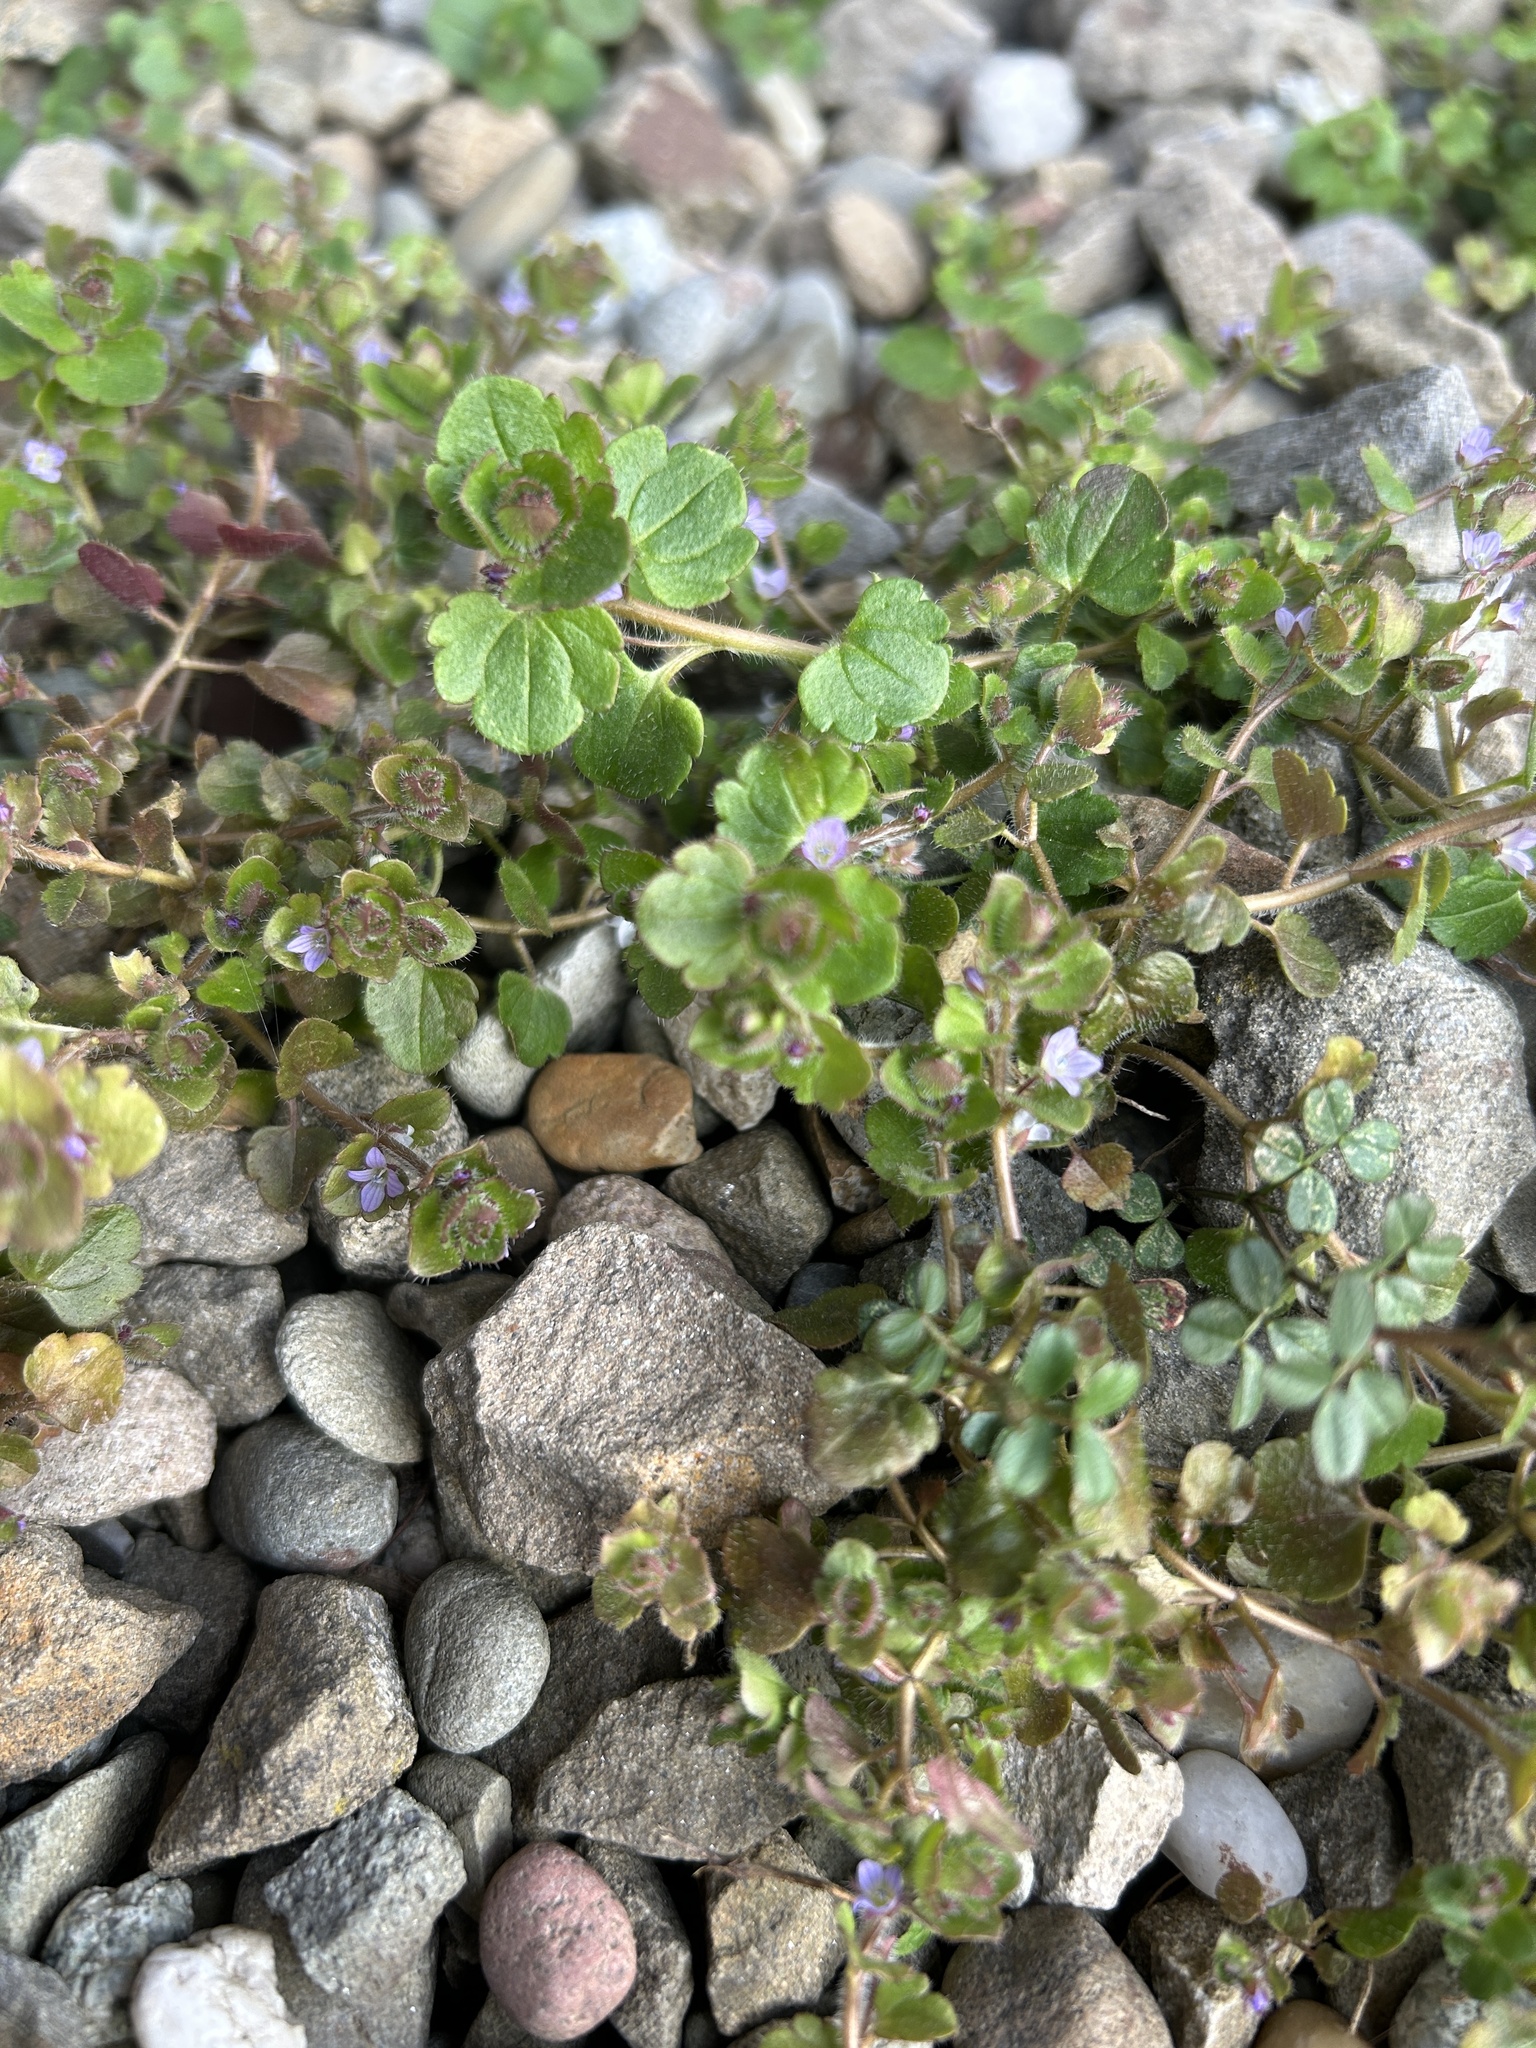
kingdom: Plantae
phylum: Tracheophyta
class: Magnoliopsida
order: Lamiales
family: Plantaginaceae
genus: Veronica
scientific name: Veronica sublobata
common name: False ivy-leaved speedwell
